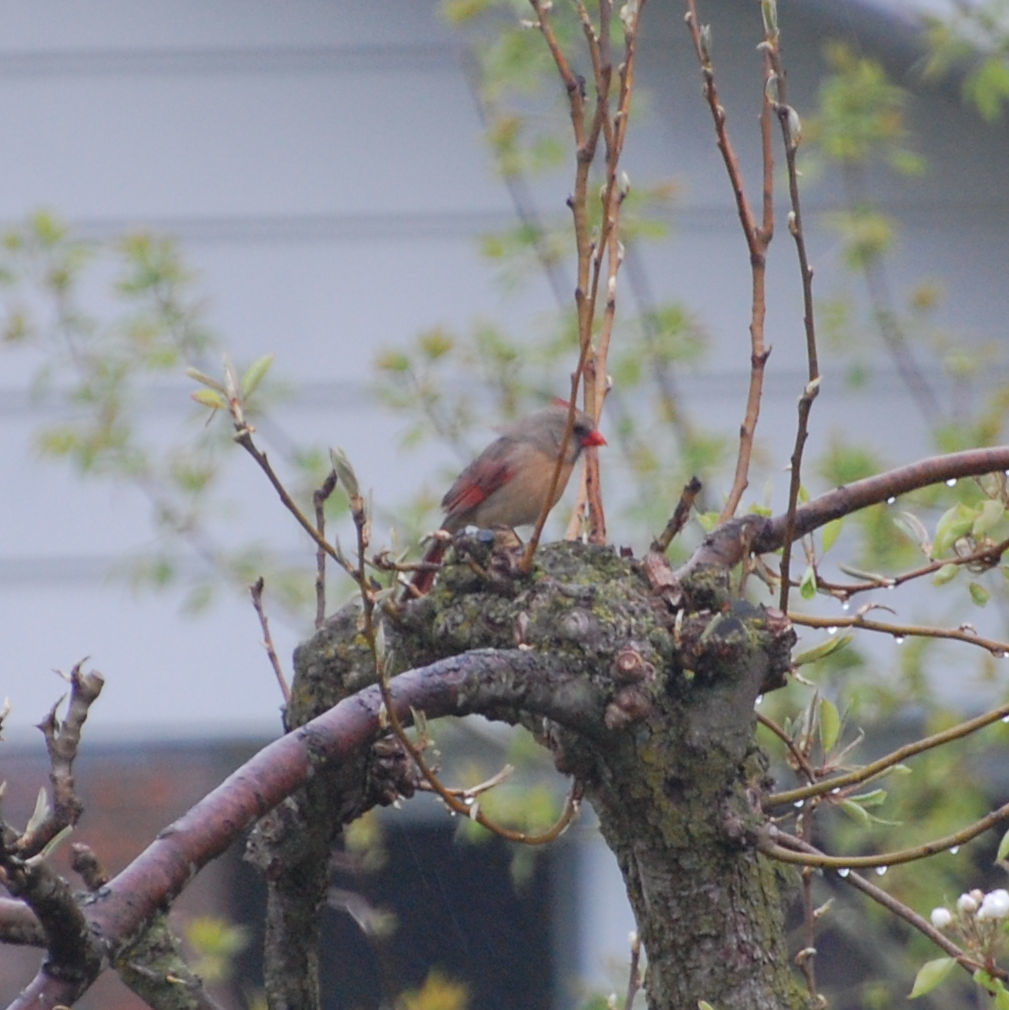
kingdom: Animalia
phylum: Chordata
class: Aves
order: Passeriformes
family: Cardinalidae
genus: Cardinalis
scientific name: Cardinalis cardinalis
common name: Northern cardinal
